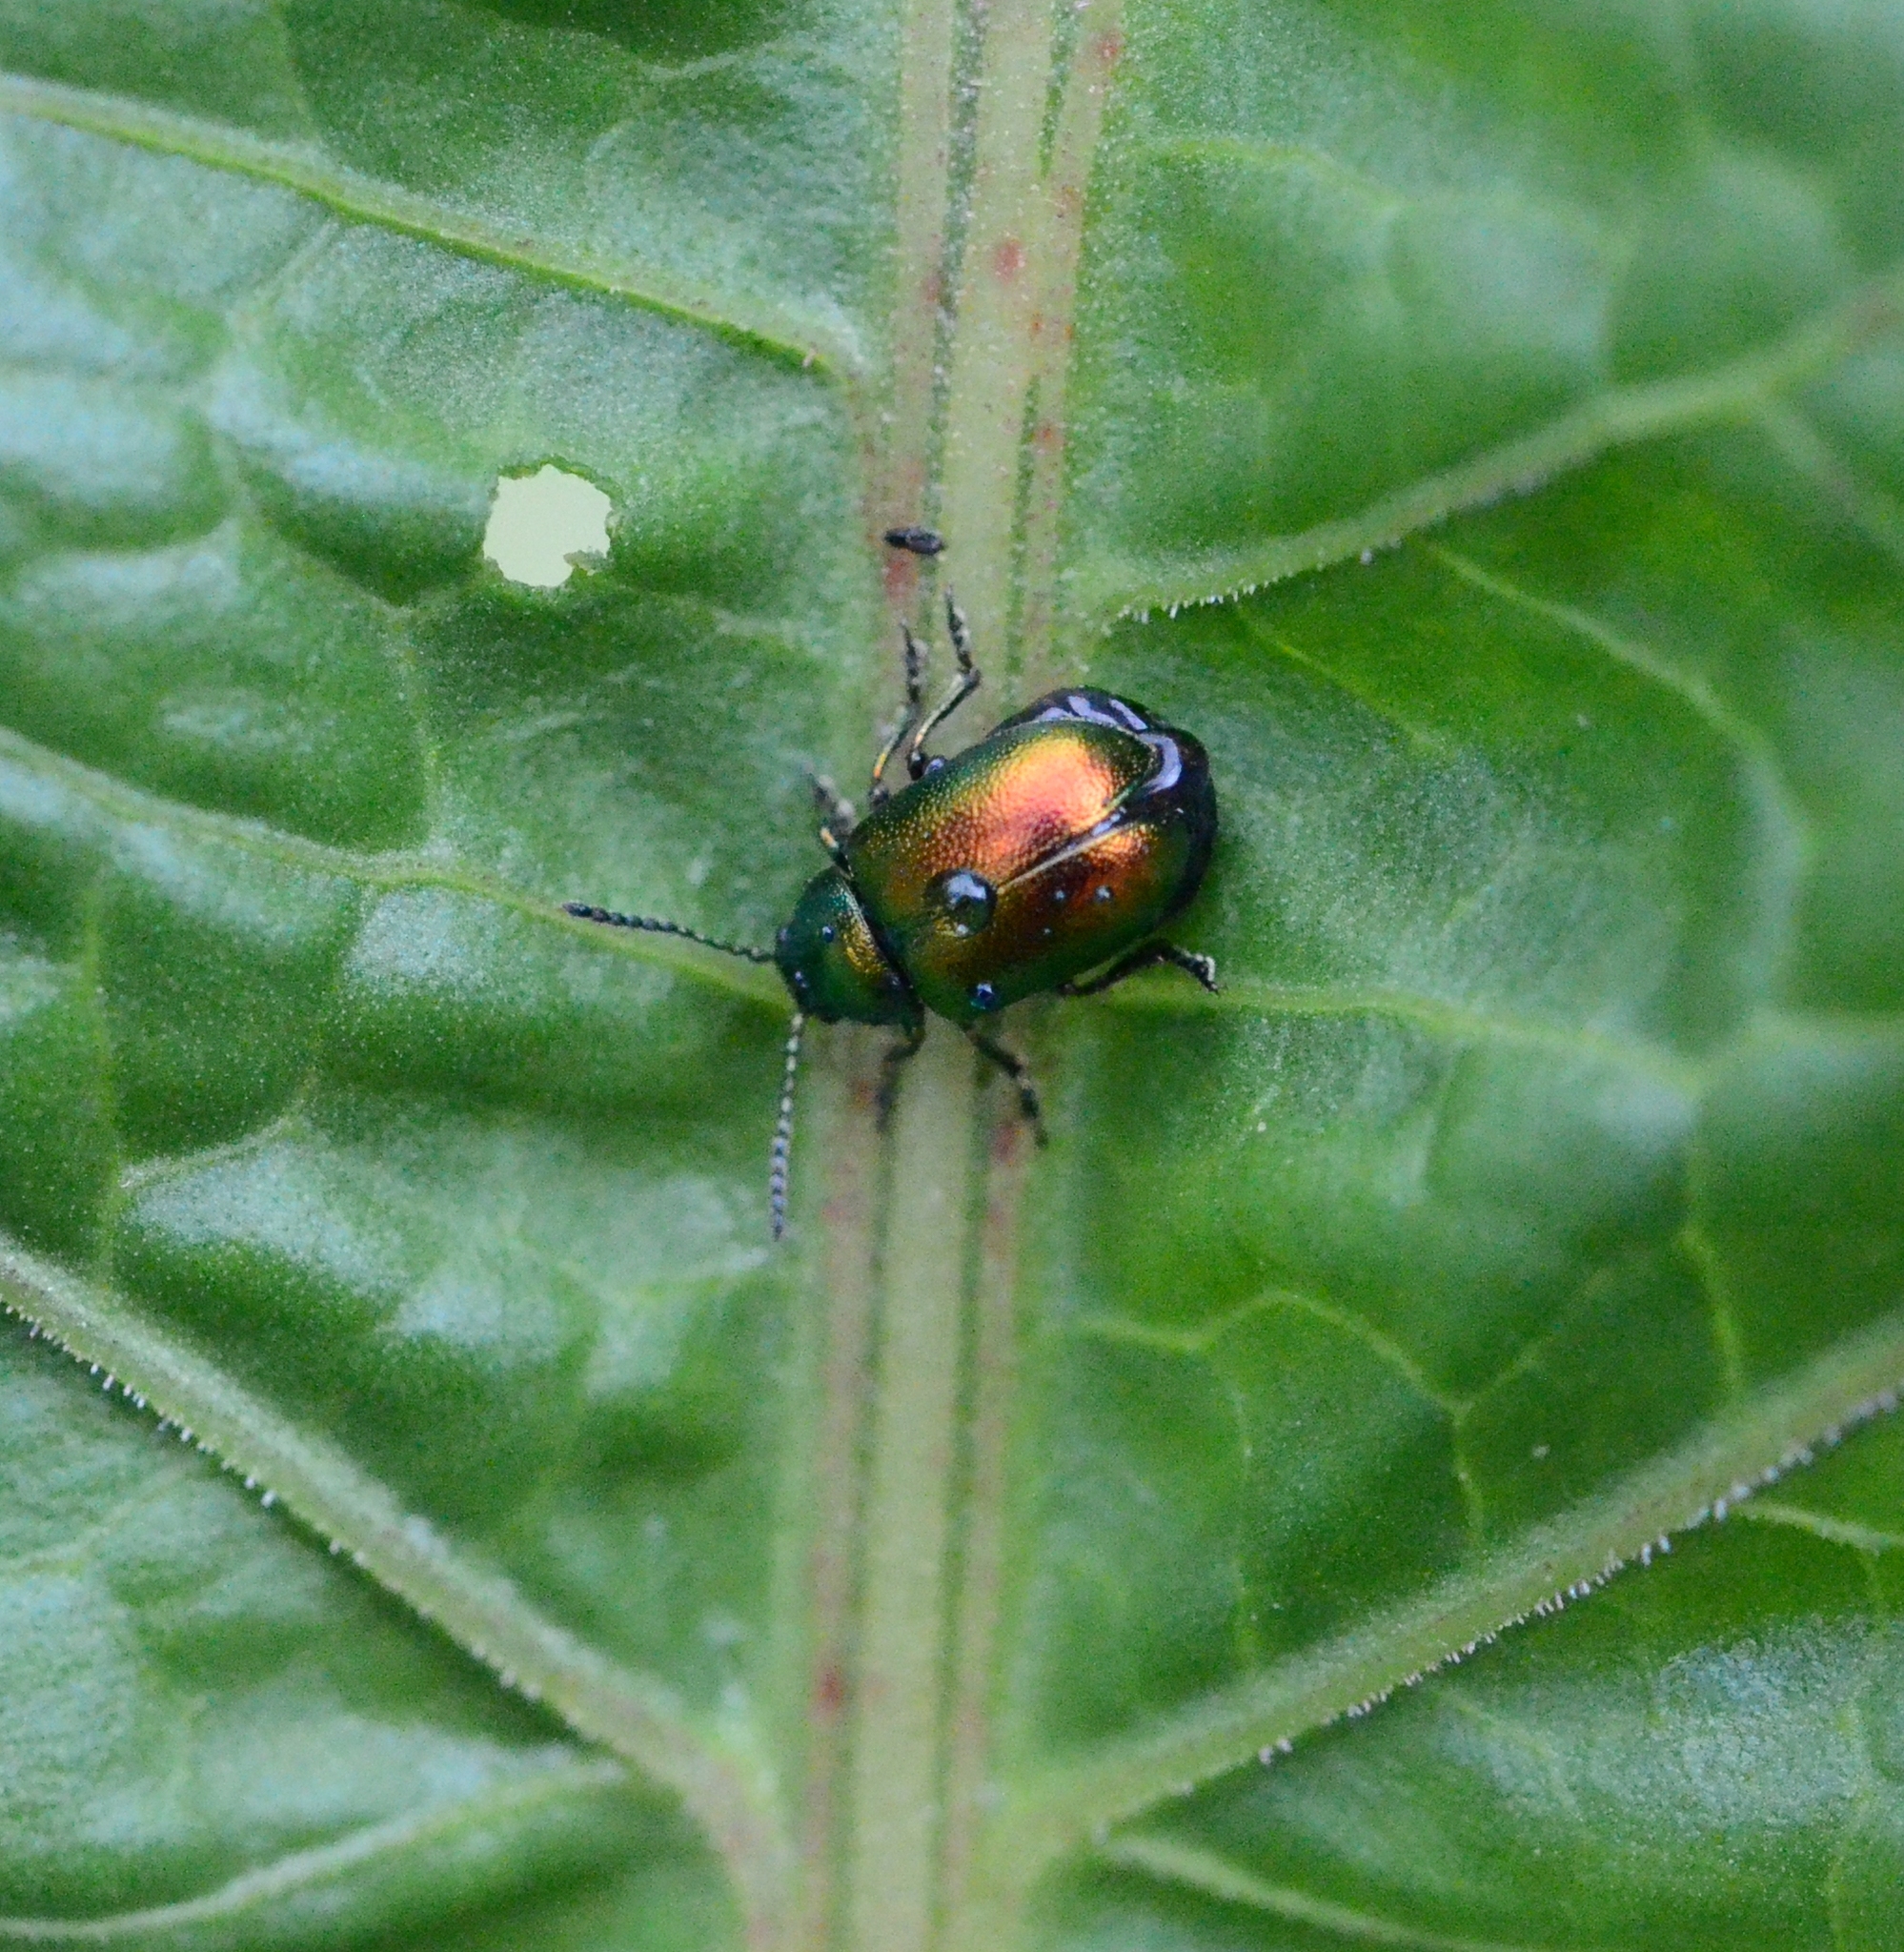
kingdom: Animalia
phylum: Arthropoda
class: Insecta
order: Coleoptera
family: Chrysomelidae
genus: Gastrophysa
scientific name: Gastrophysa viridula
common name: Green dock beetle
